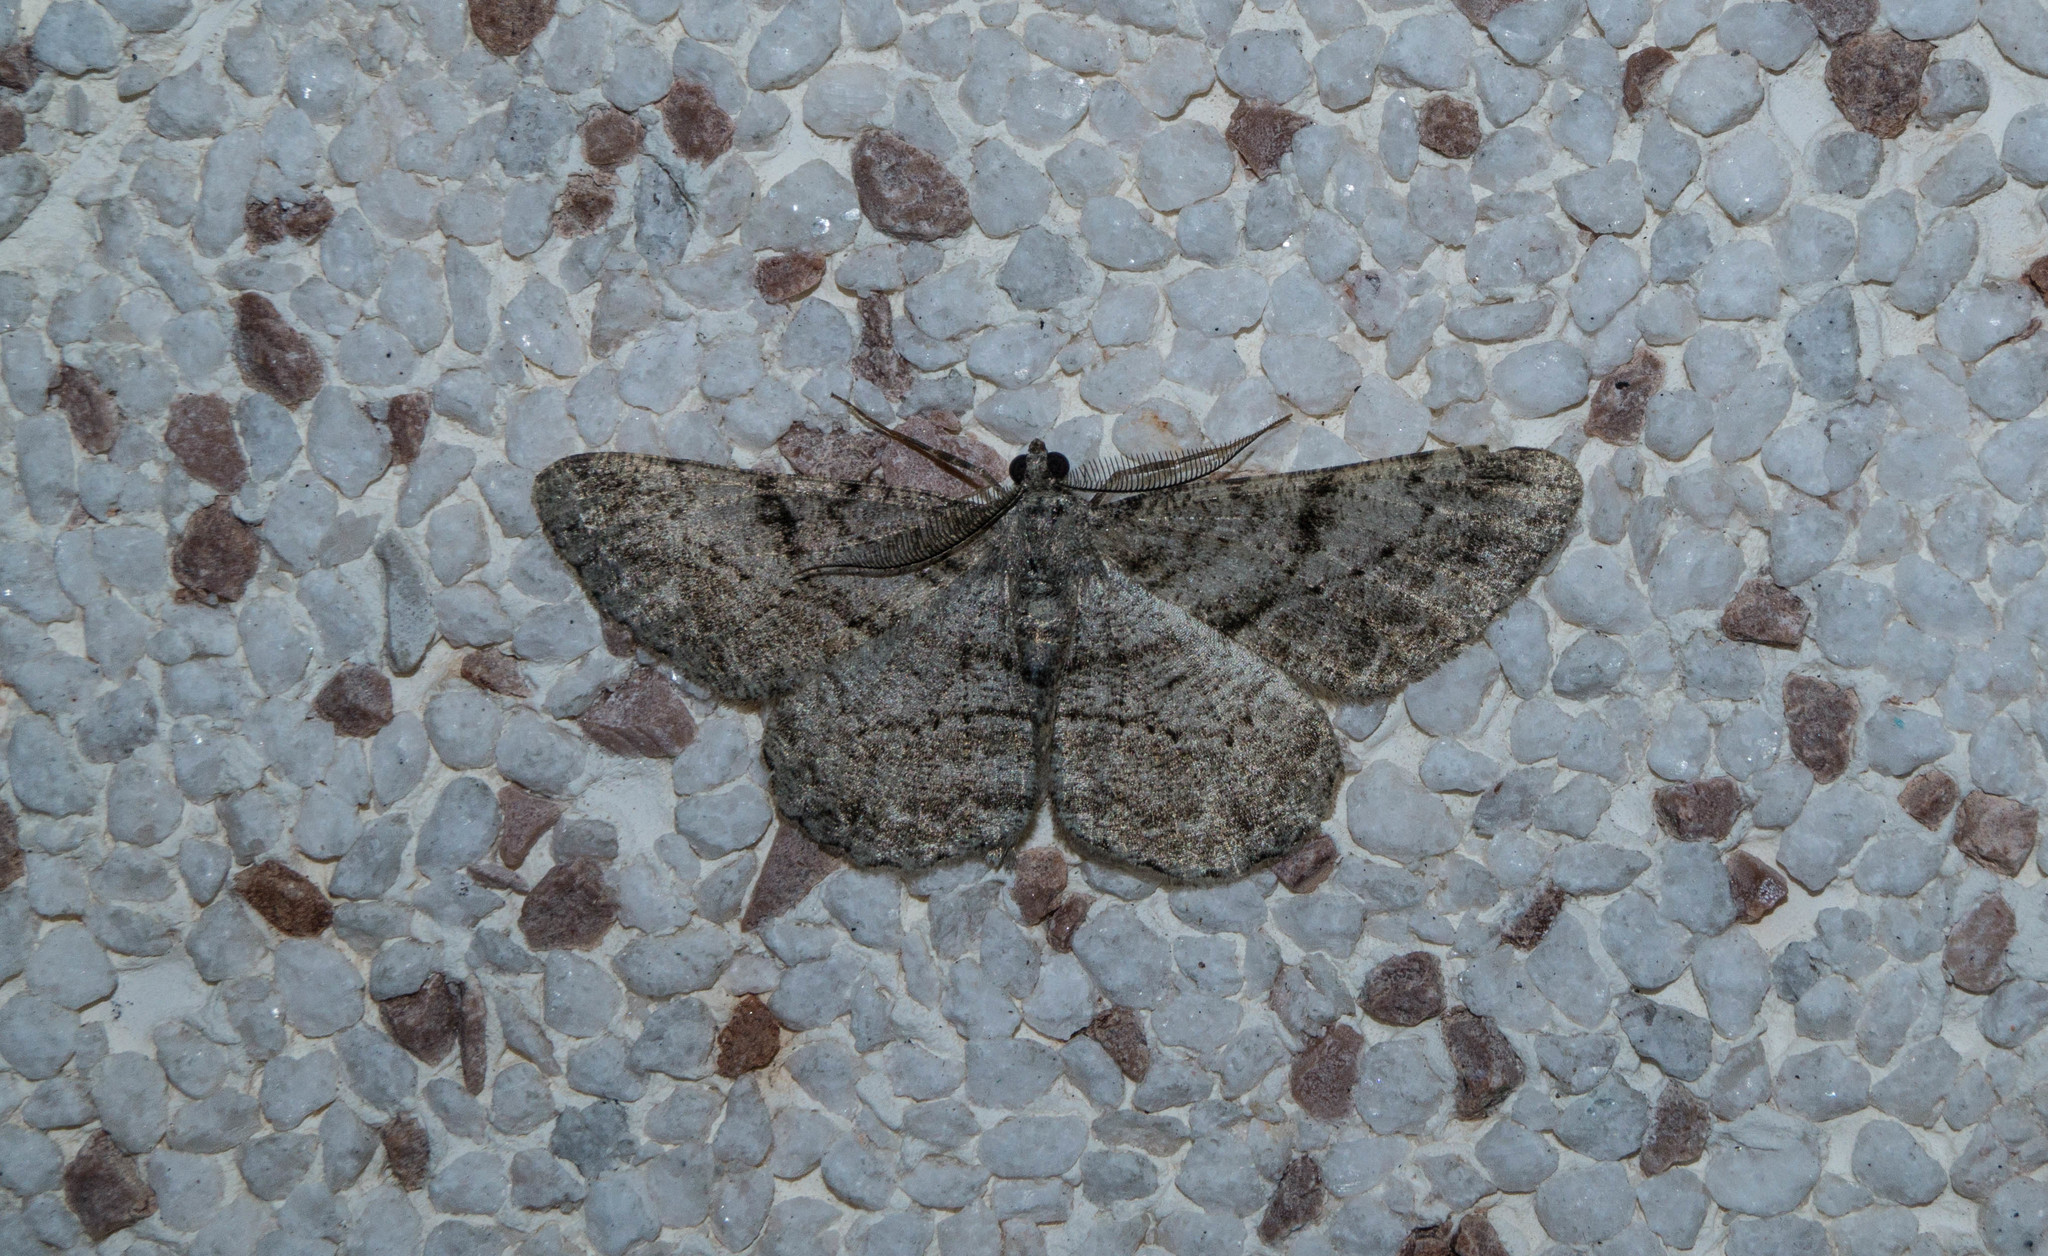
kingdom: Animalia
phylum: Arthropoda
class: Insecta
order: Lepidoptera
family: Geometridae
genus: Peribatodes
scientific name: Peribatodes rhomboidaria
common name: Willow beauty
